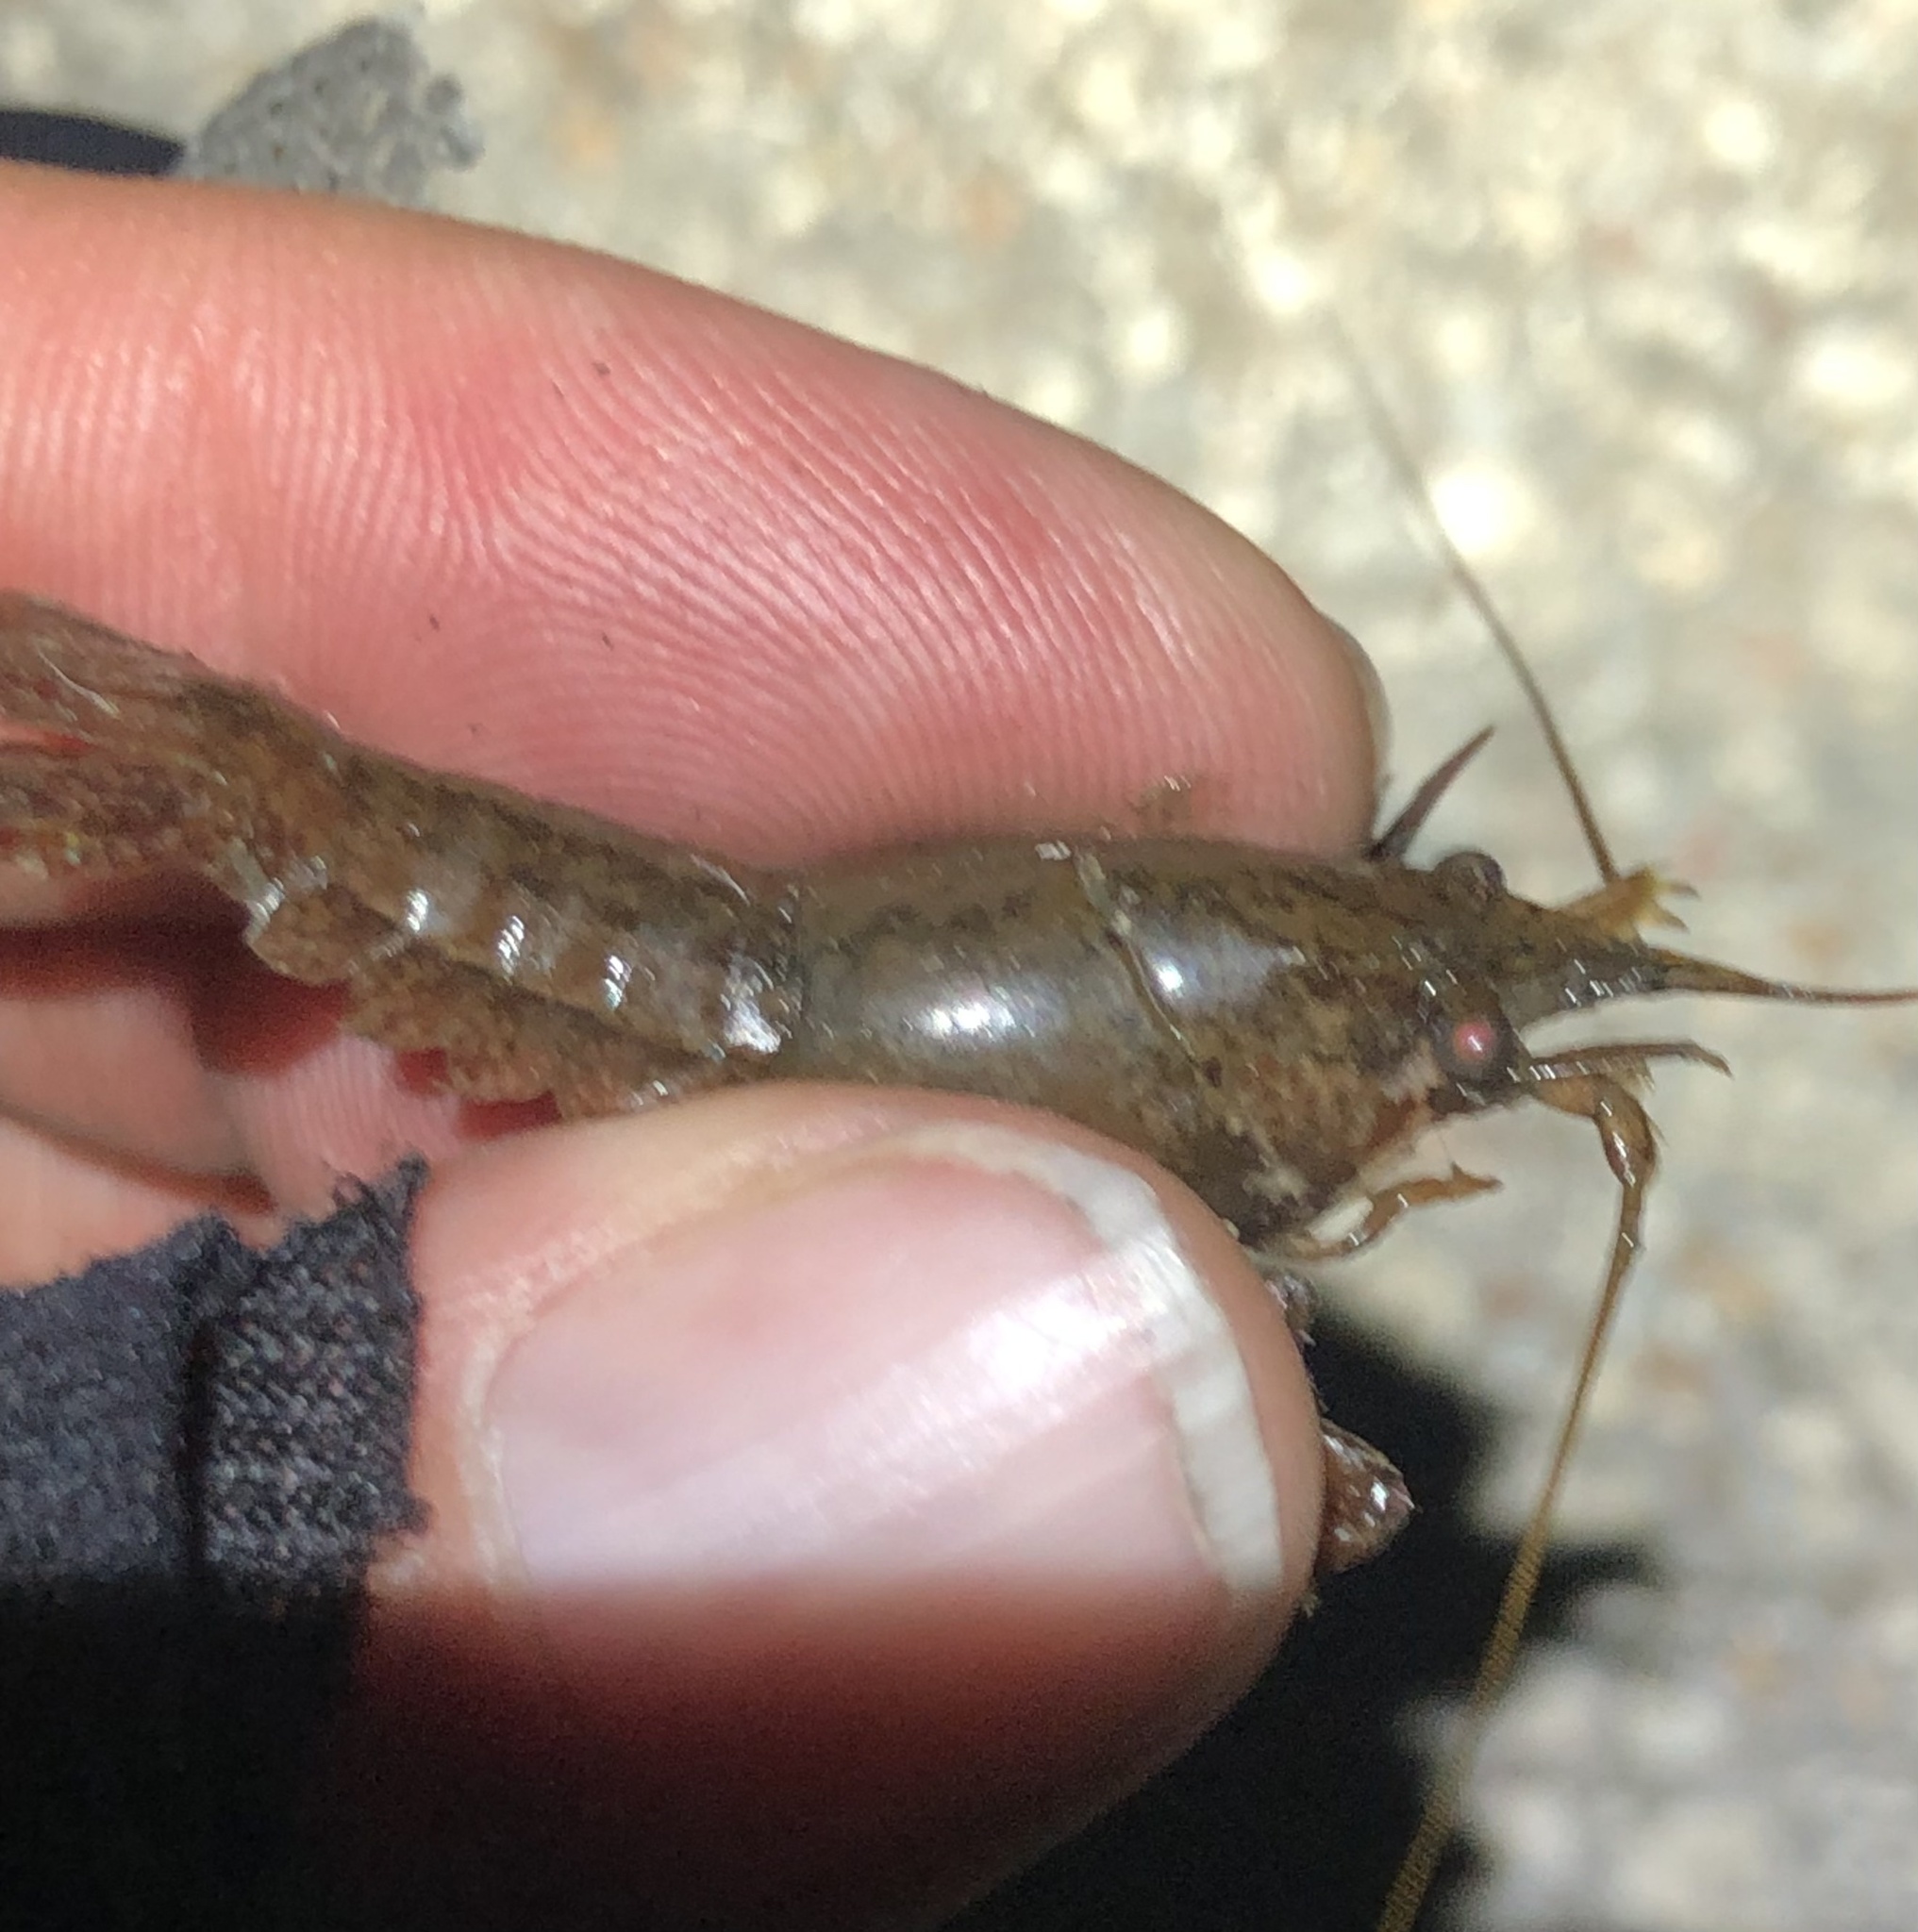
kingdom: Animalia
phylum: Arthropoda
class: Malacostraca
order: Decapoda
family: Cambaridae
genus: Procambarus
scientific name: Procambarus clarkii
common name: Red swamp crayfish
